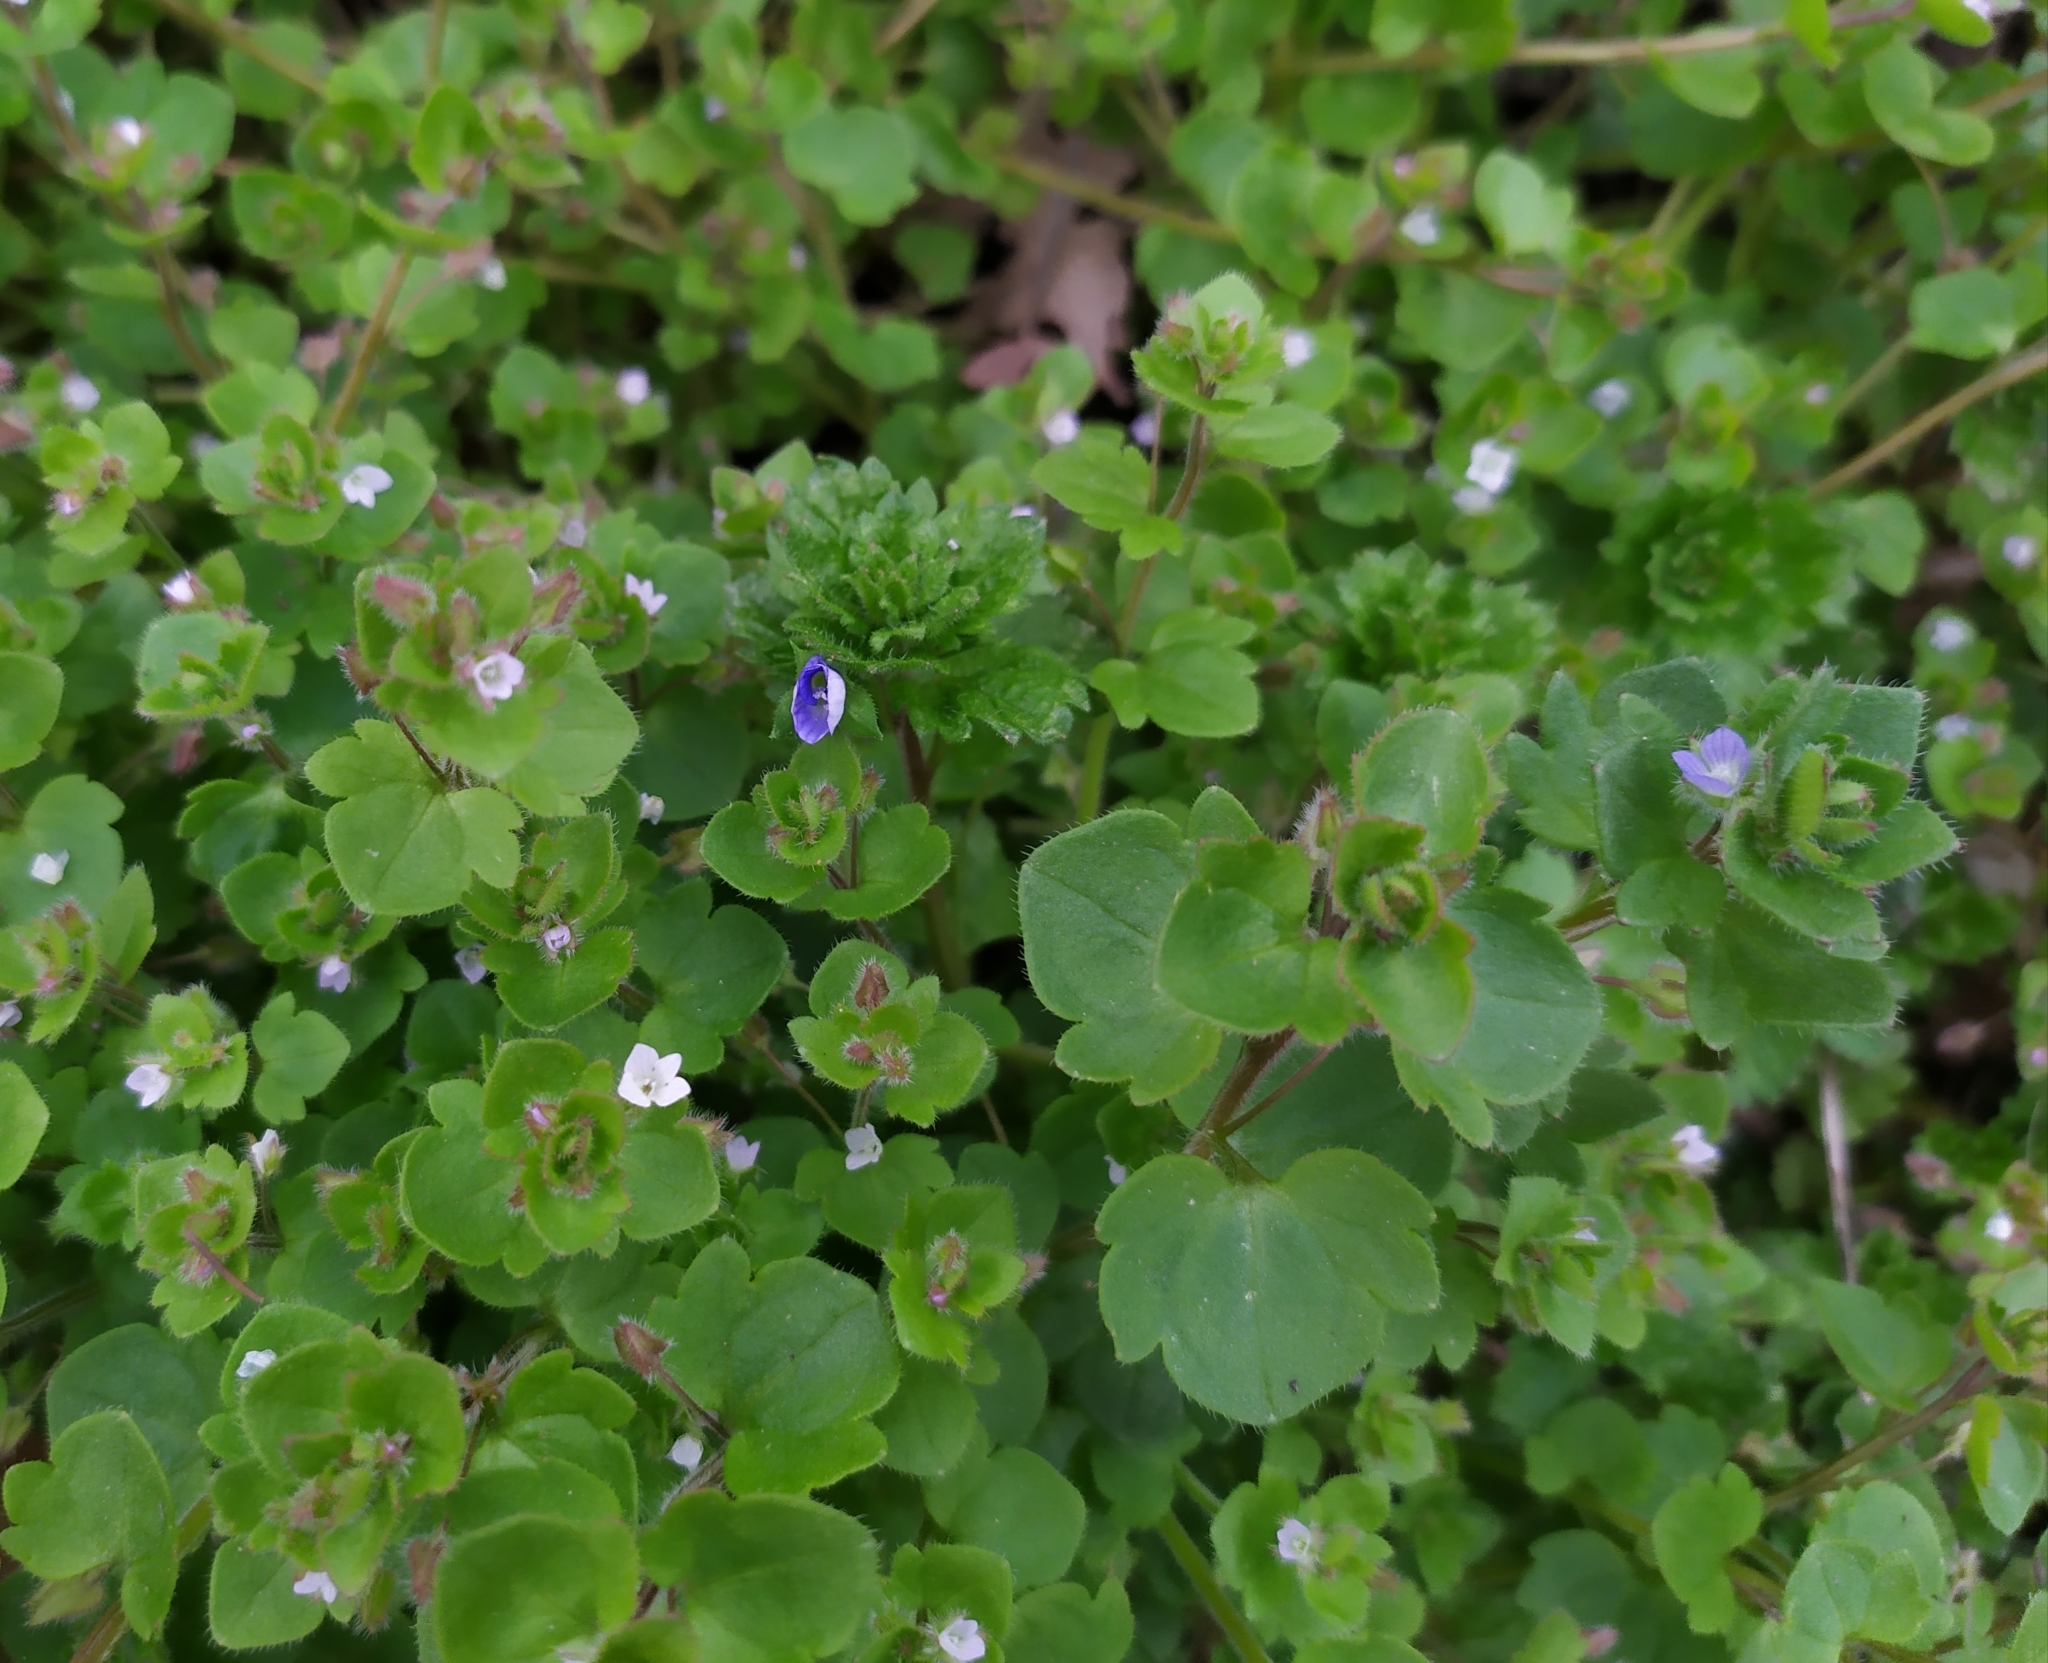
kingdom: Plantae
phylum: Tracheophyta
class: Magnoliopsida
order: Lamiales
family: Plantaginaceae
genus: Veronica
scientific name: Veronica hederifolia
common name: Ivy-leaved speedwell
